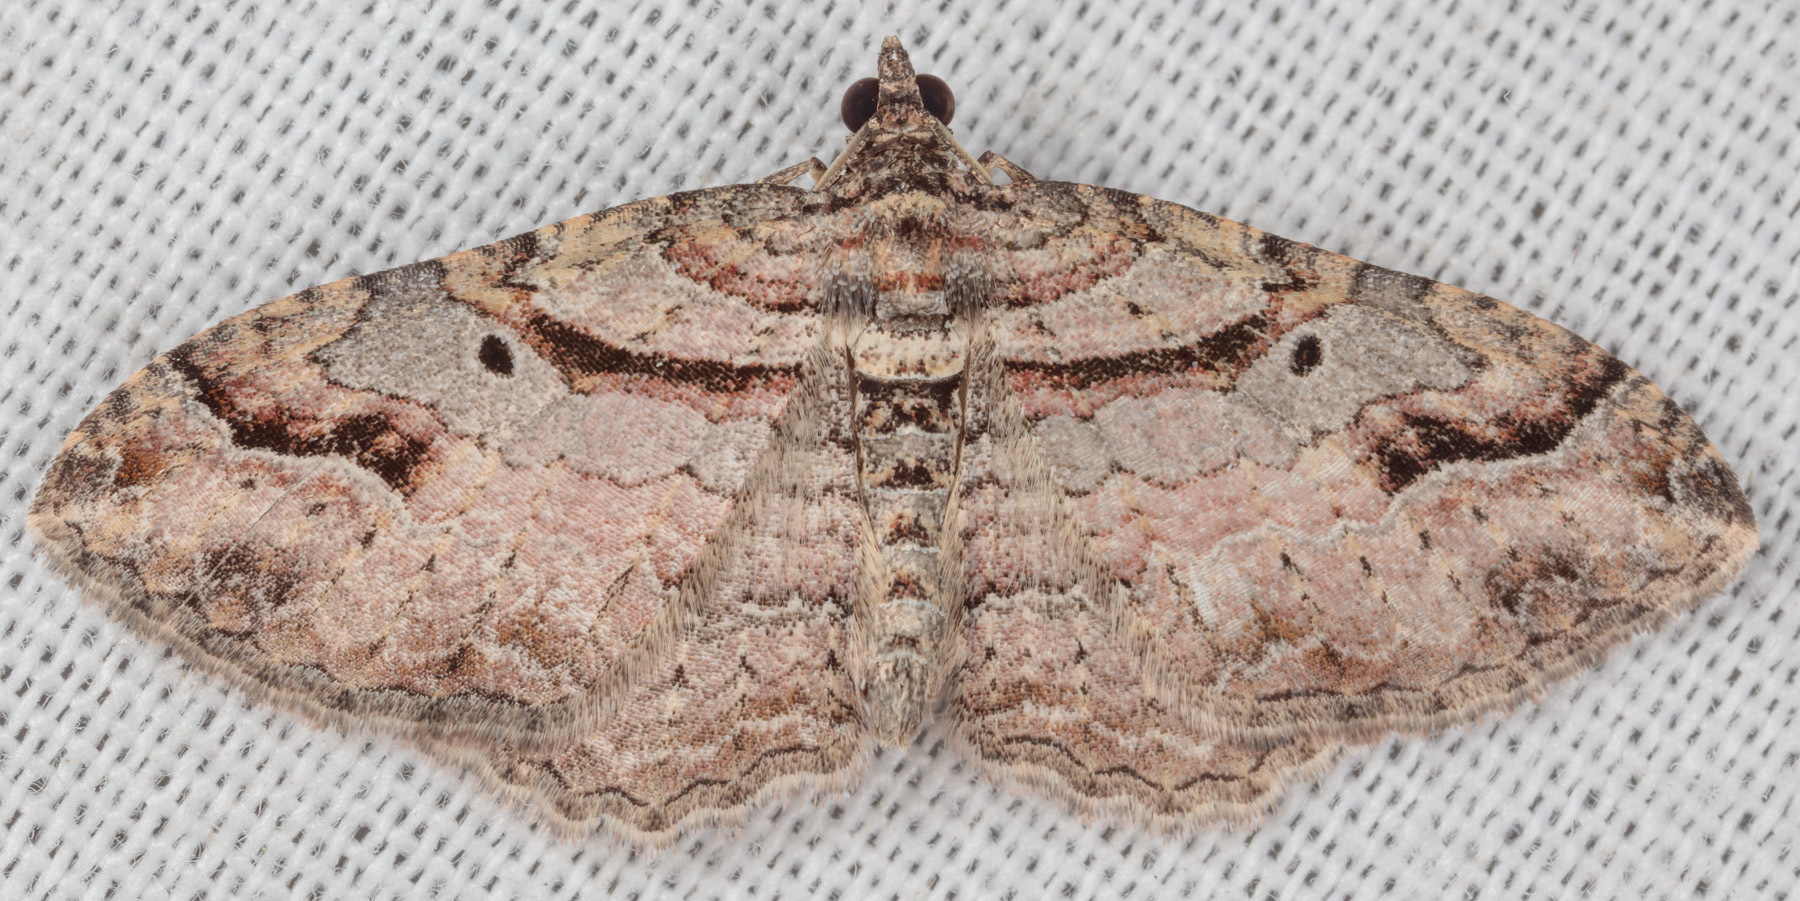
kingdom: Animalia
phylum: Arthropoda
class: Insecta
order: Lepidoptera
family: Geometridae
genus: Costaconvexa
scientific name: Costaconvexa centrostrigaria
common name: Bent-line carpet
